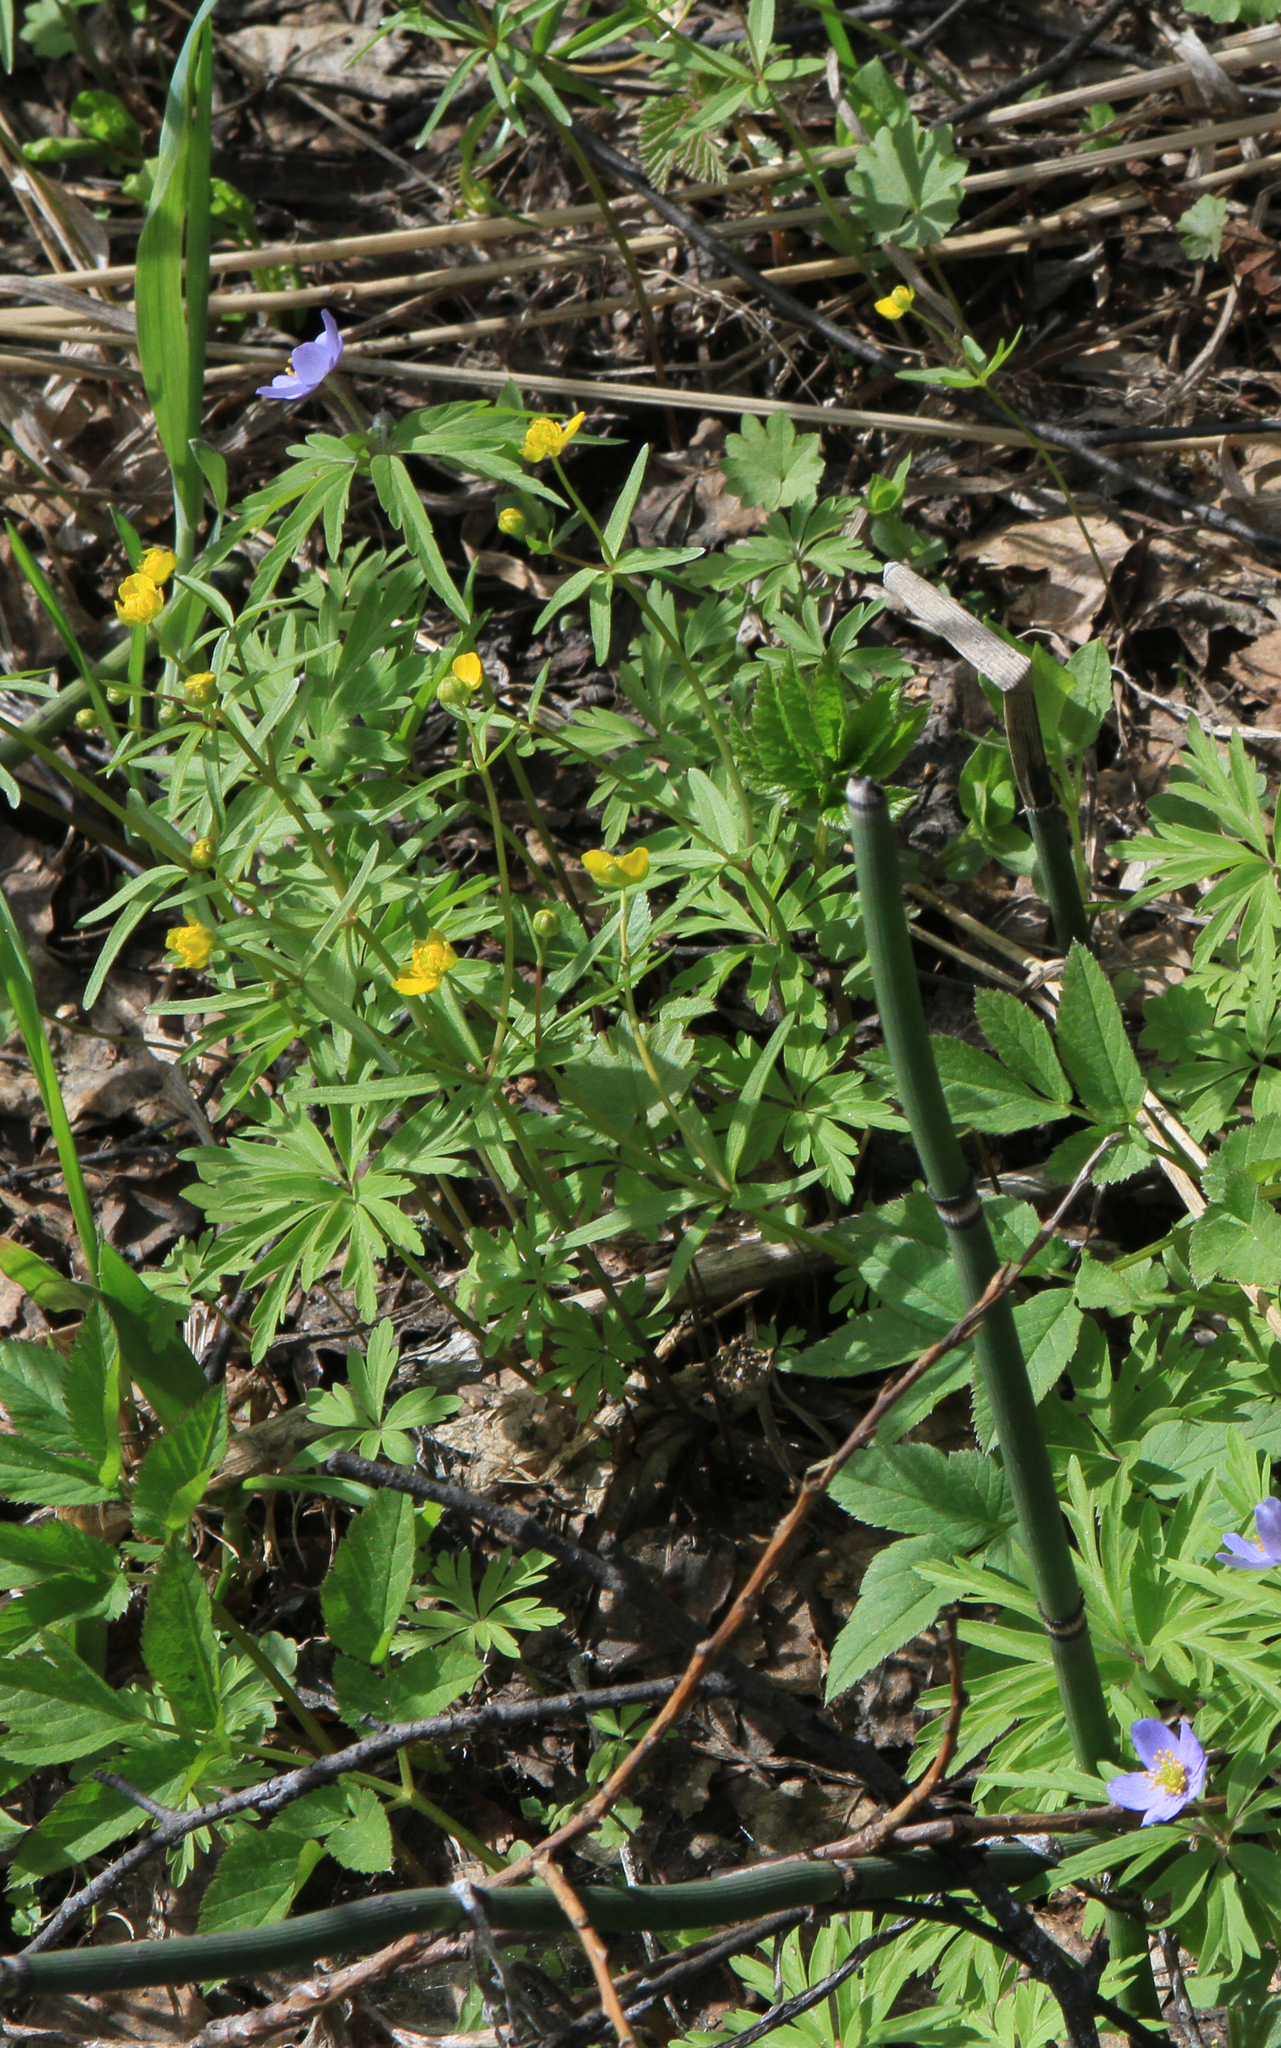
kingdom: Plantae
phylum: Tracheophyta
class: Magnoliopsida
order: Ranunculales
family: Ranunculaceae
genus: Ranunculus
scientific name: Ranunculus monophyllus
